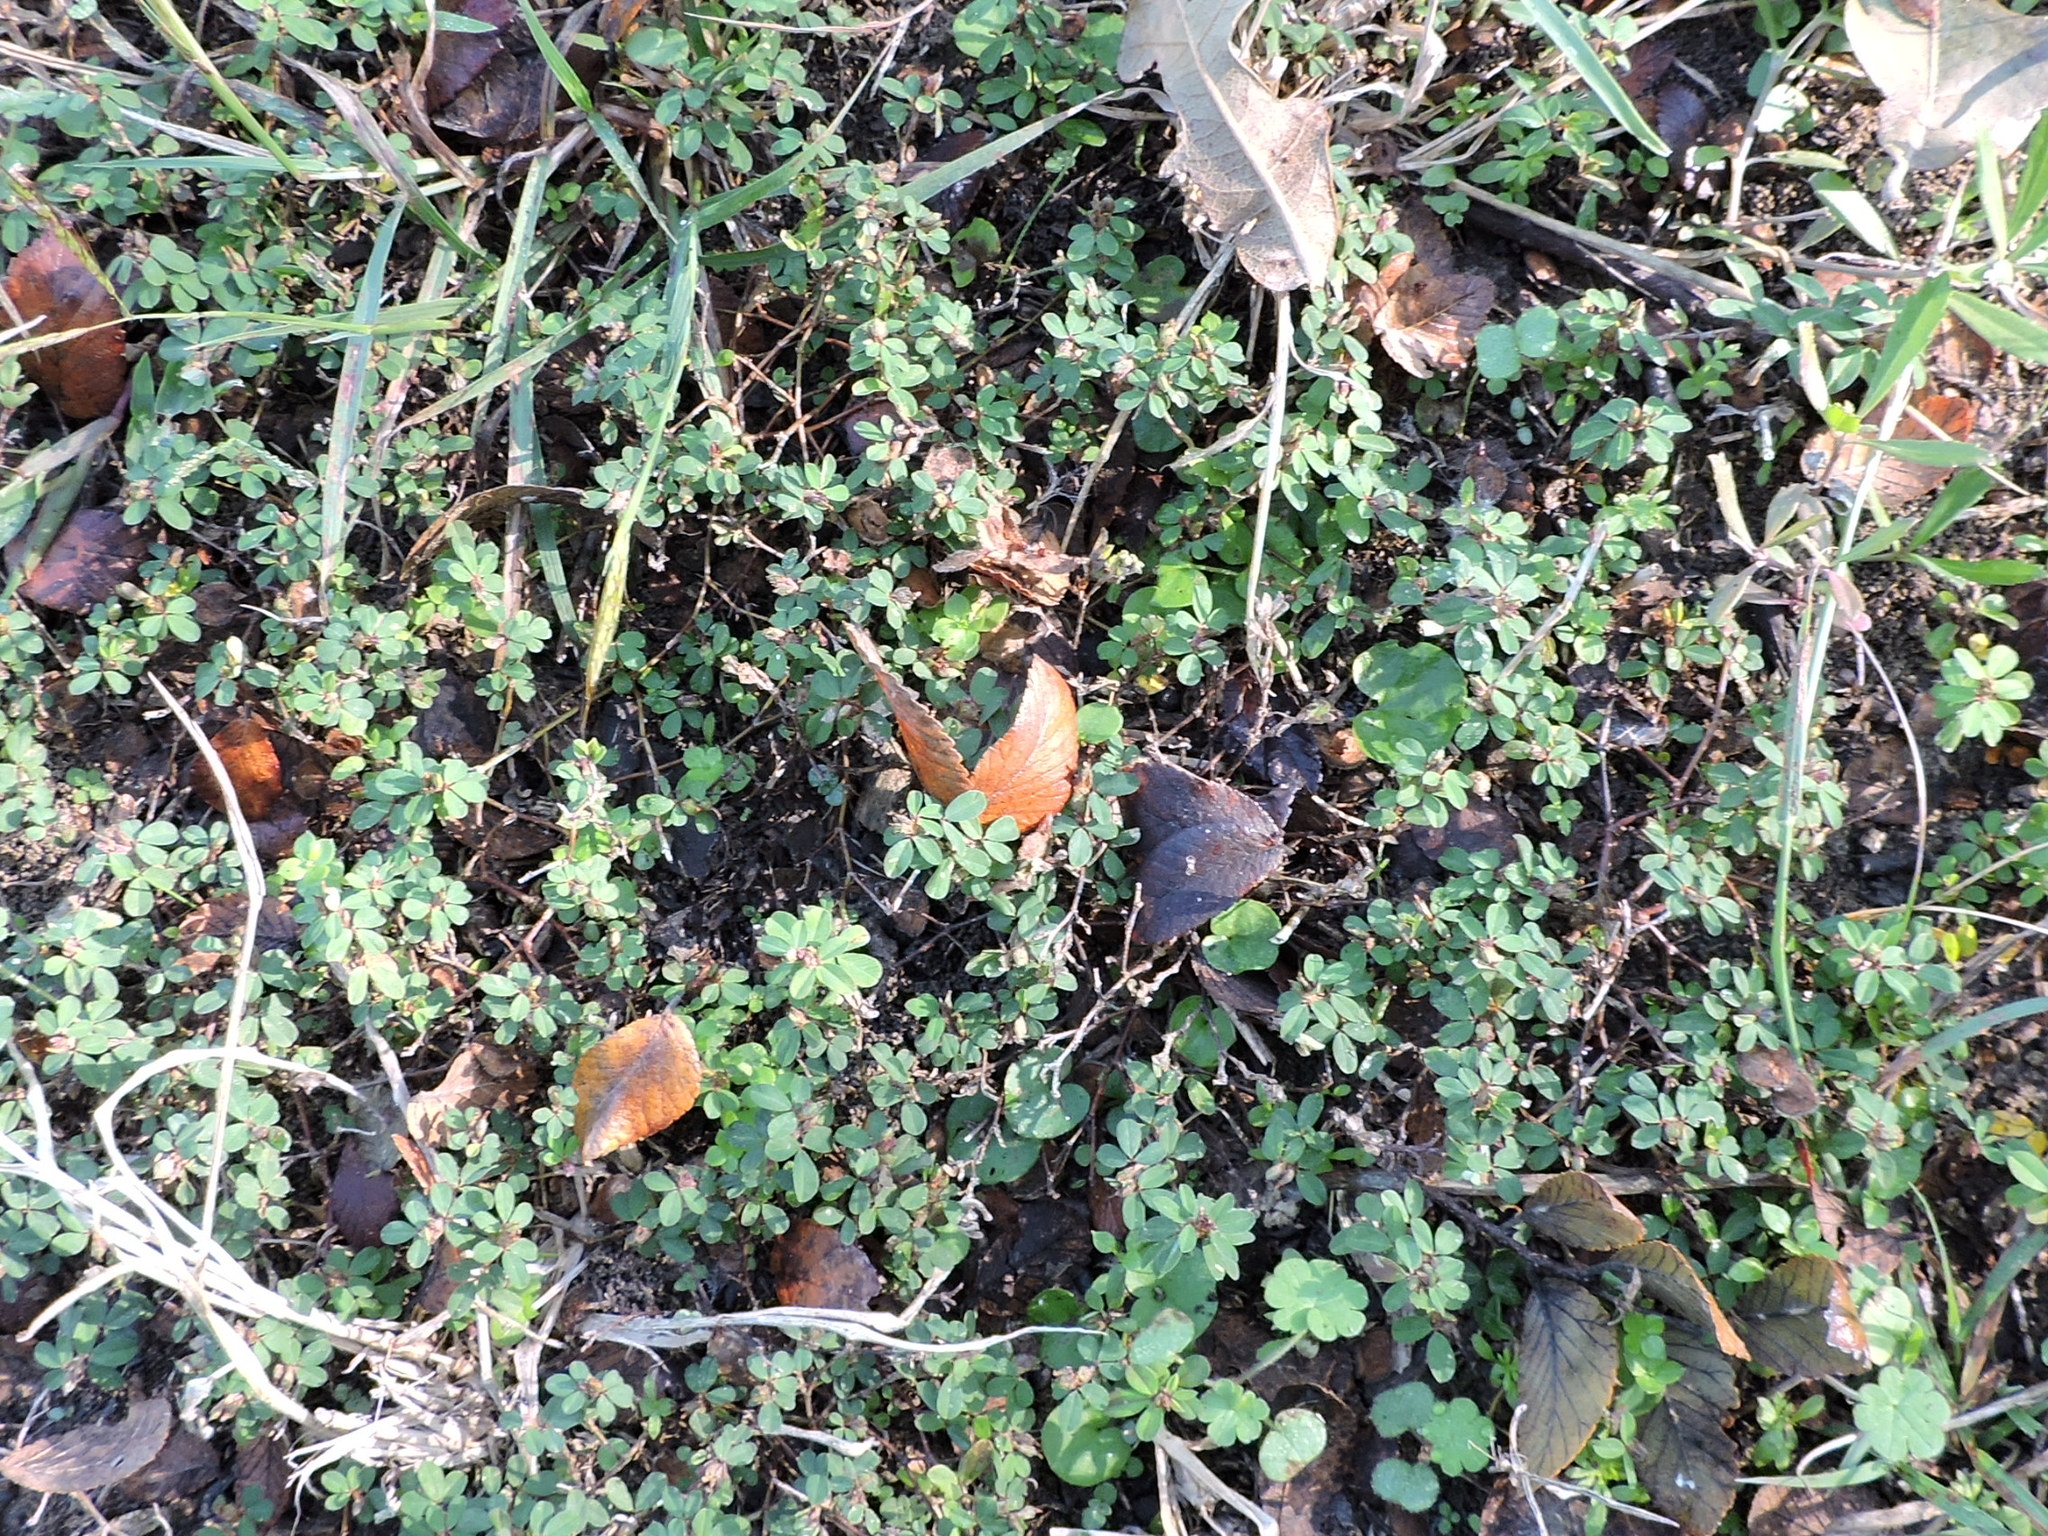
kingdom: Plantae
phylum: Tracheophyta
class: Magnoliopsida
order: Fabales
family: Fabaceae
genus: Kummerowia
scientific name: Kummerowia striata
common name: Japanese clover
